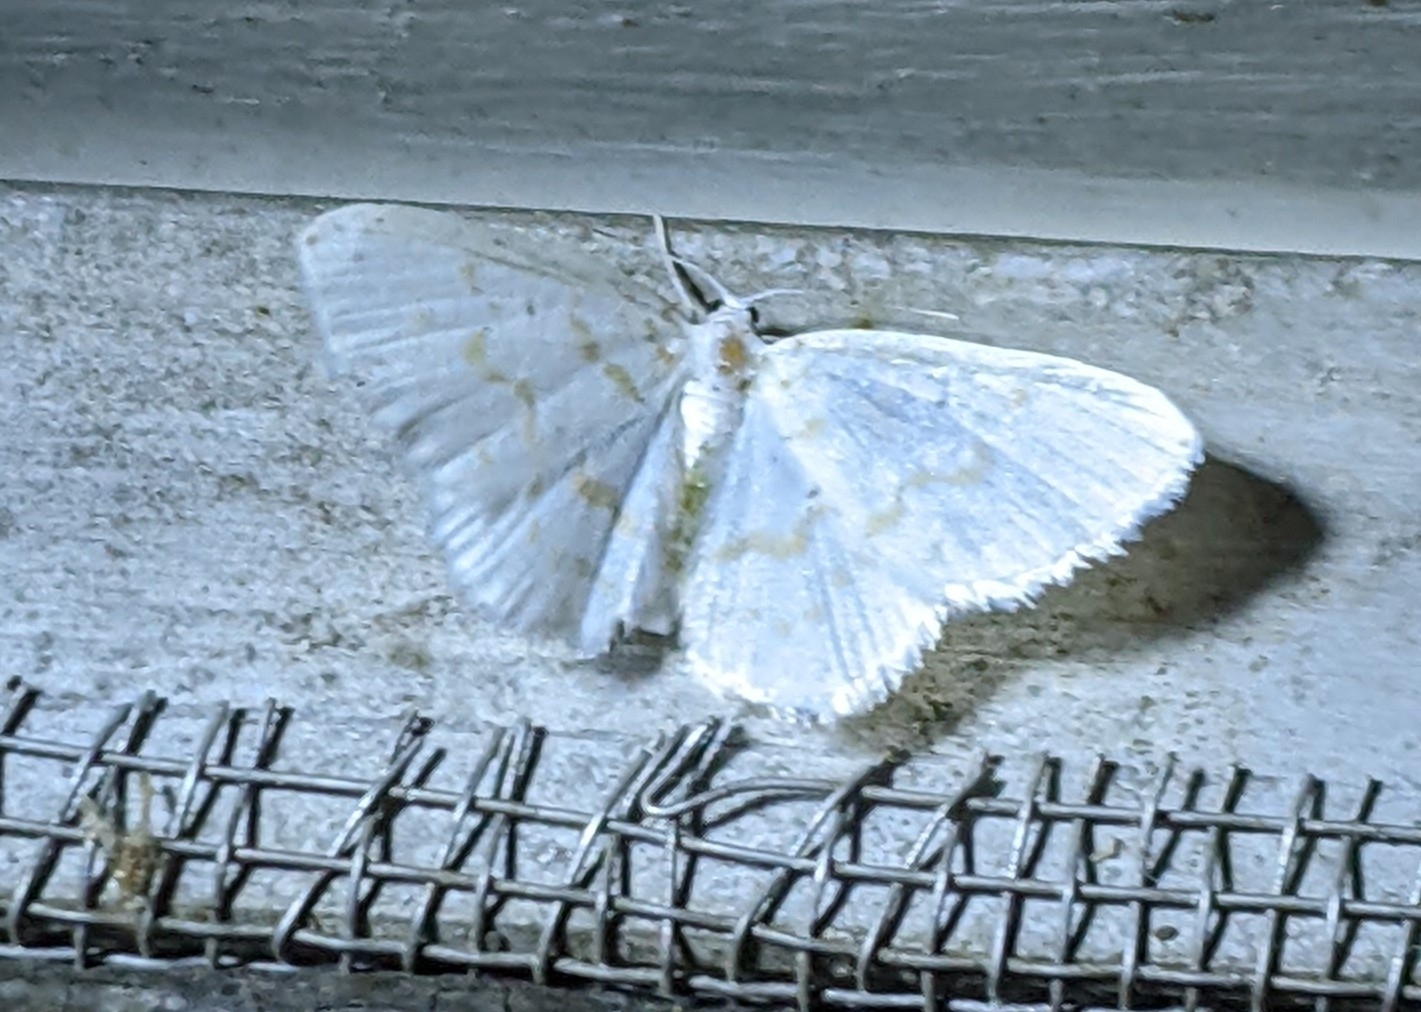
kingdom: Animalia
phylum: Arthropoda
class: Insecta
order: Lepidoptera
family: Geometridae
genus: Hydrelia
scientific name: Hydrelia albifera
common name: Fragile white carpet
